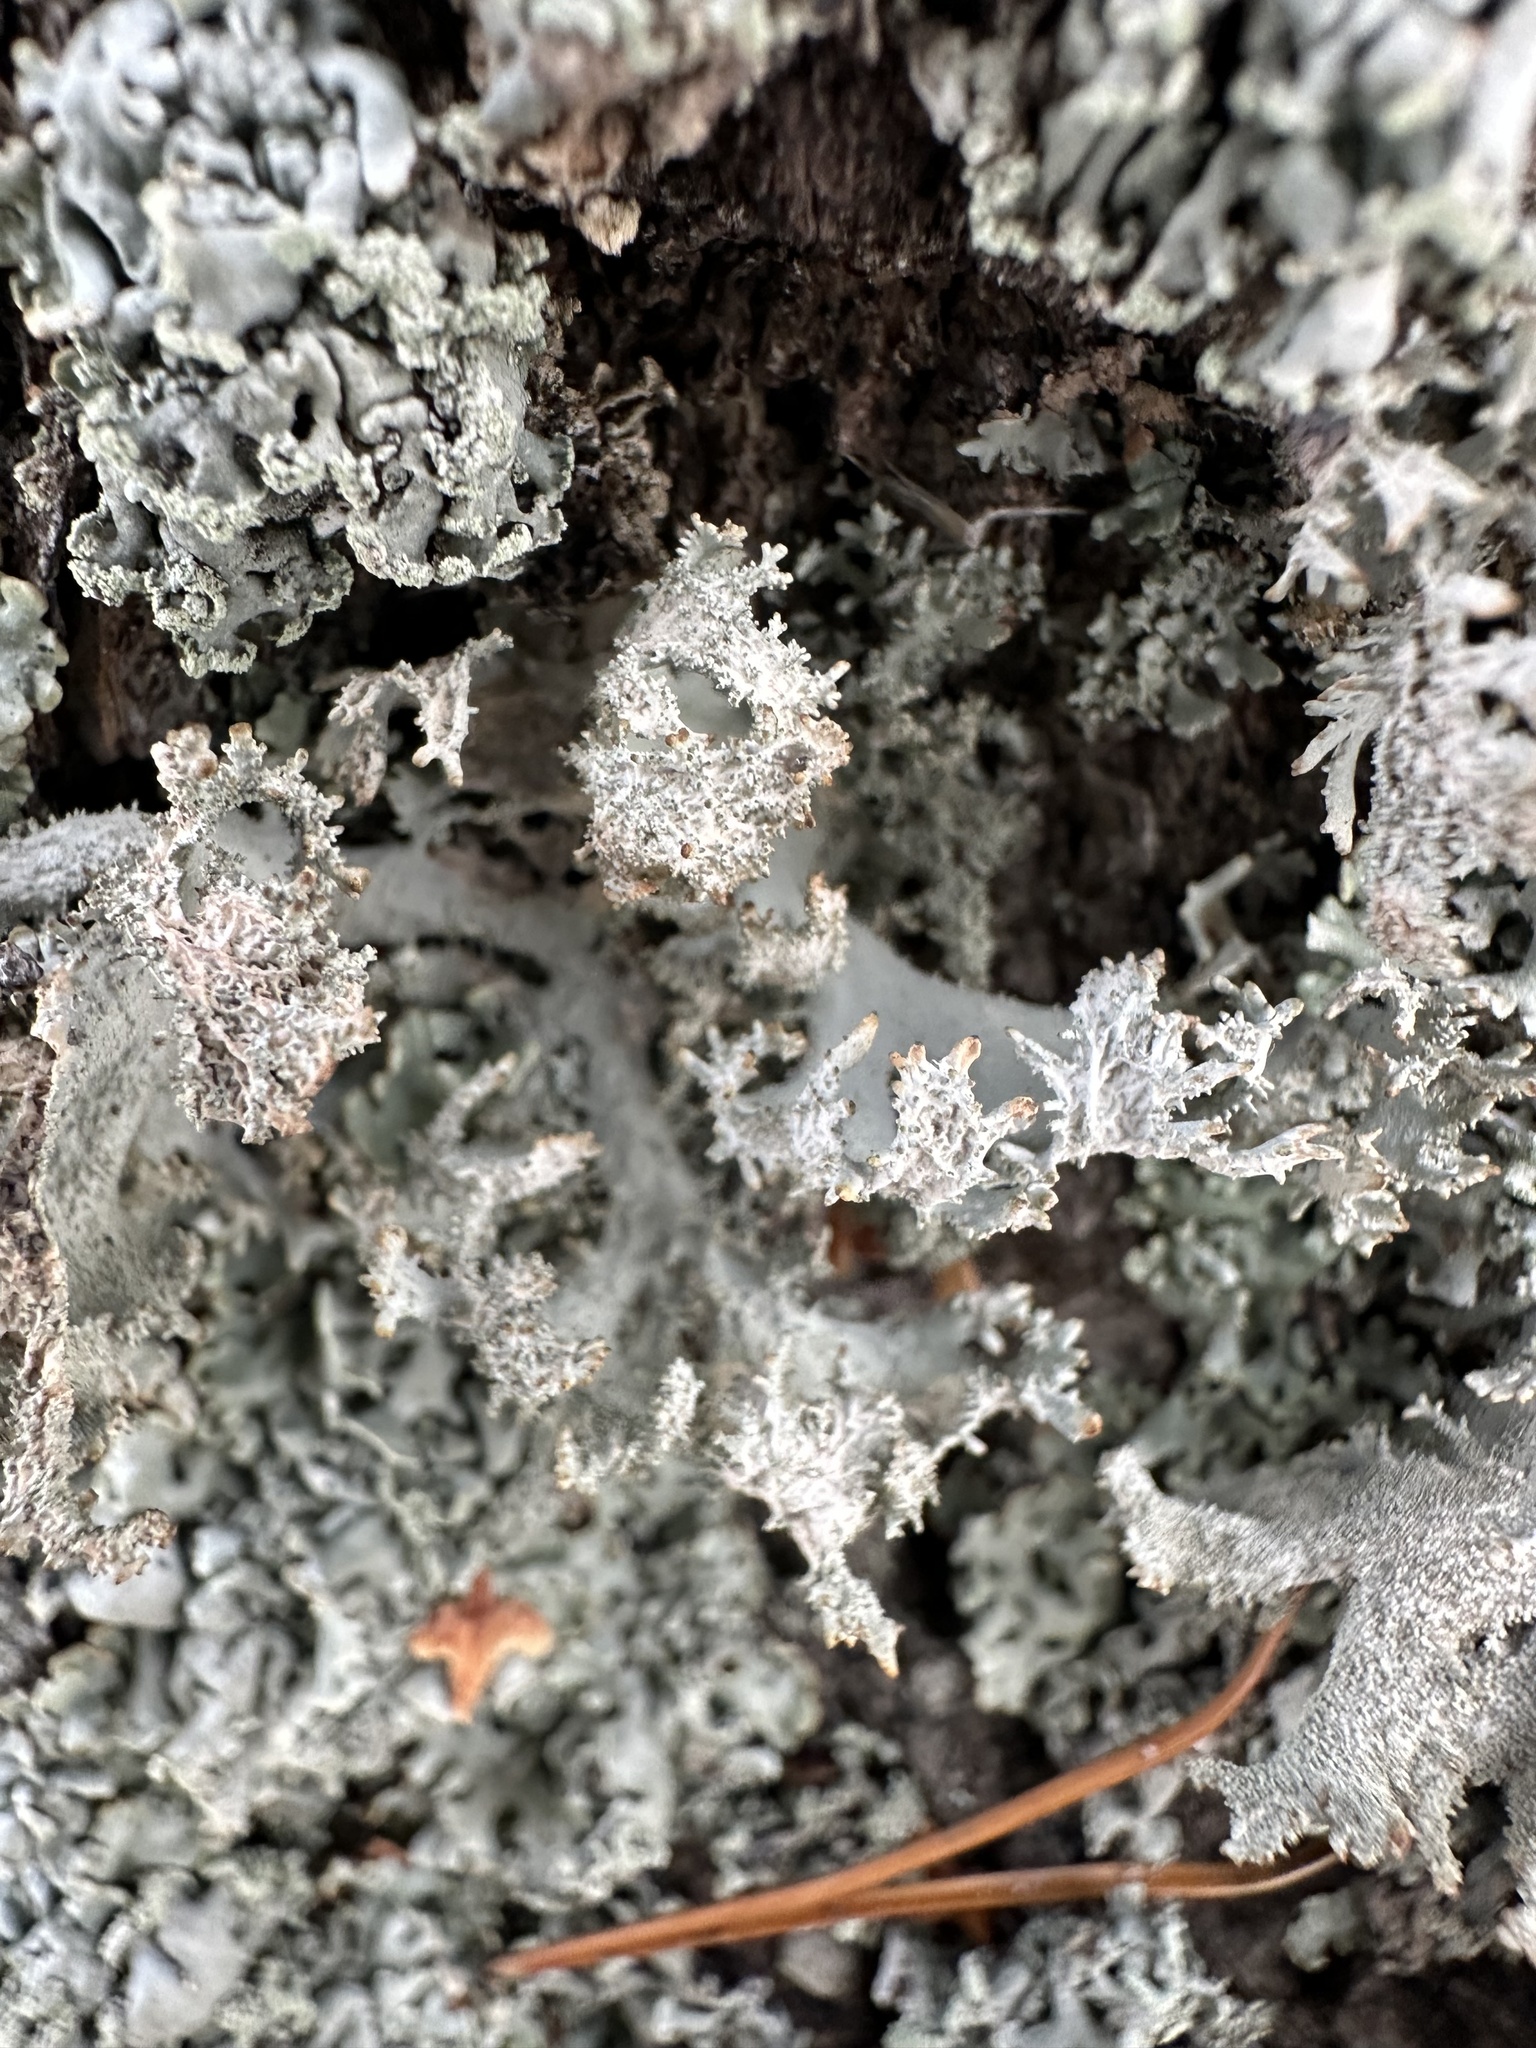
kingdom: Fungi
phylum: Ascomycota
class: Lecanoromycetes
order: Lecanorales
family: Parmeliaceae
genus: Pseudevernia
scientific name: Pseudevernia furfuracea
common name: Tree moss
